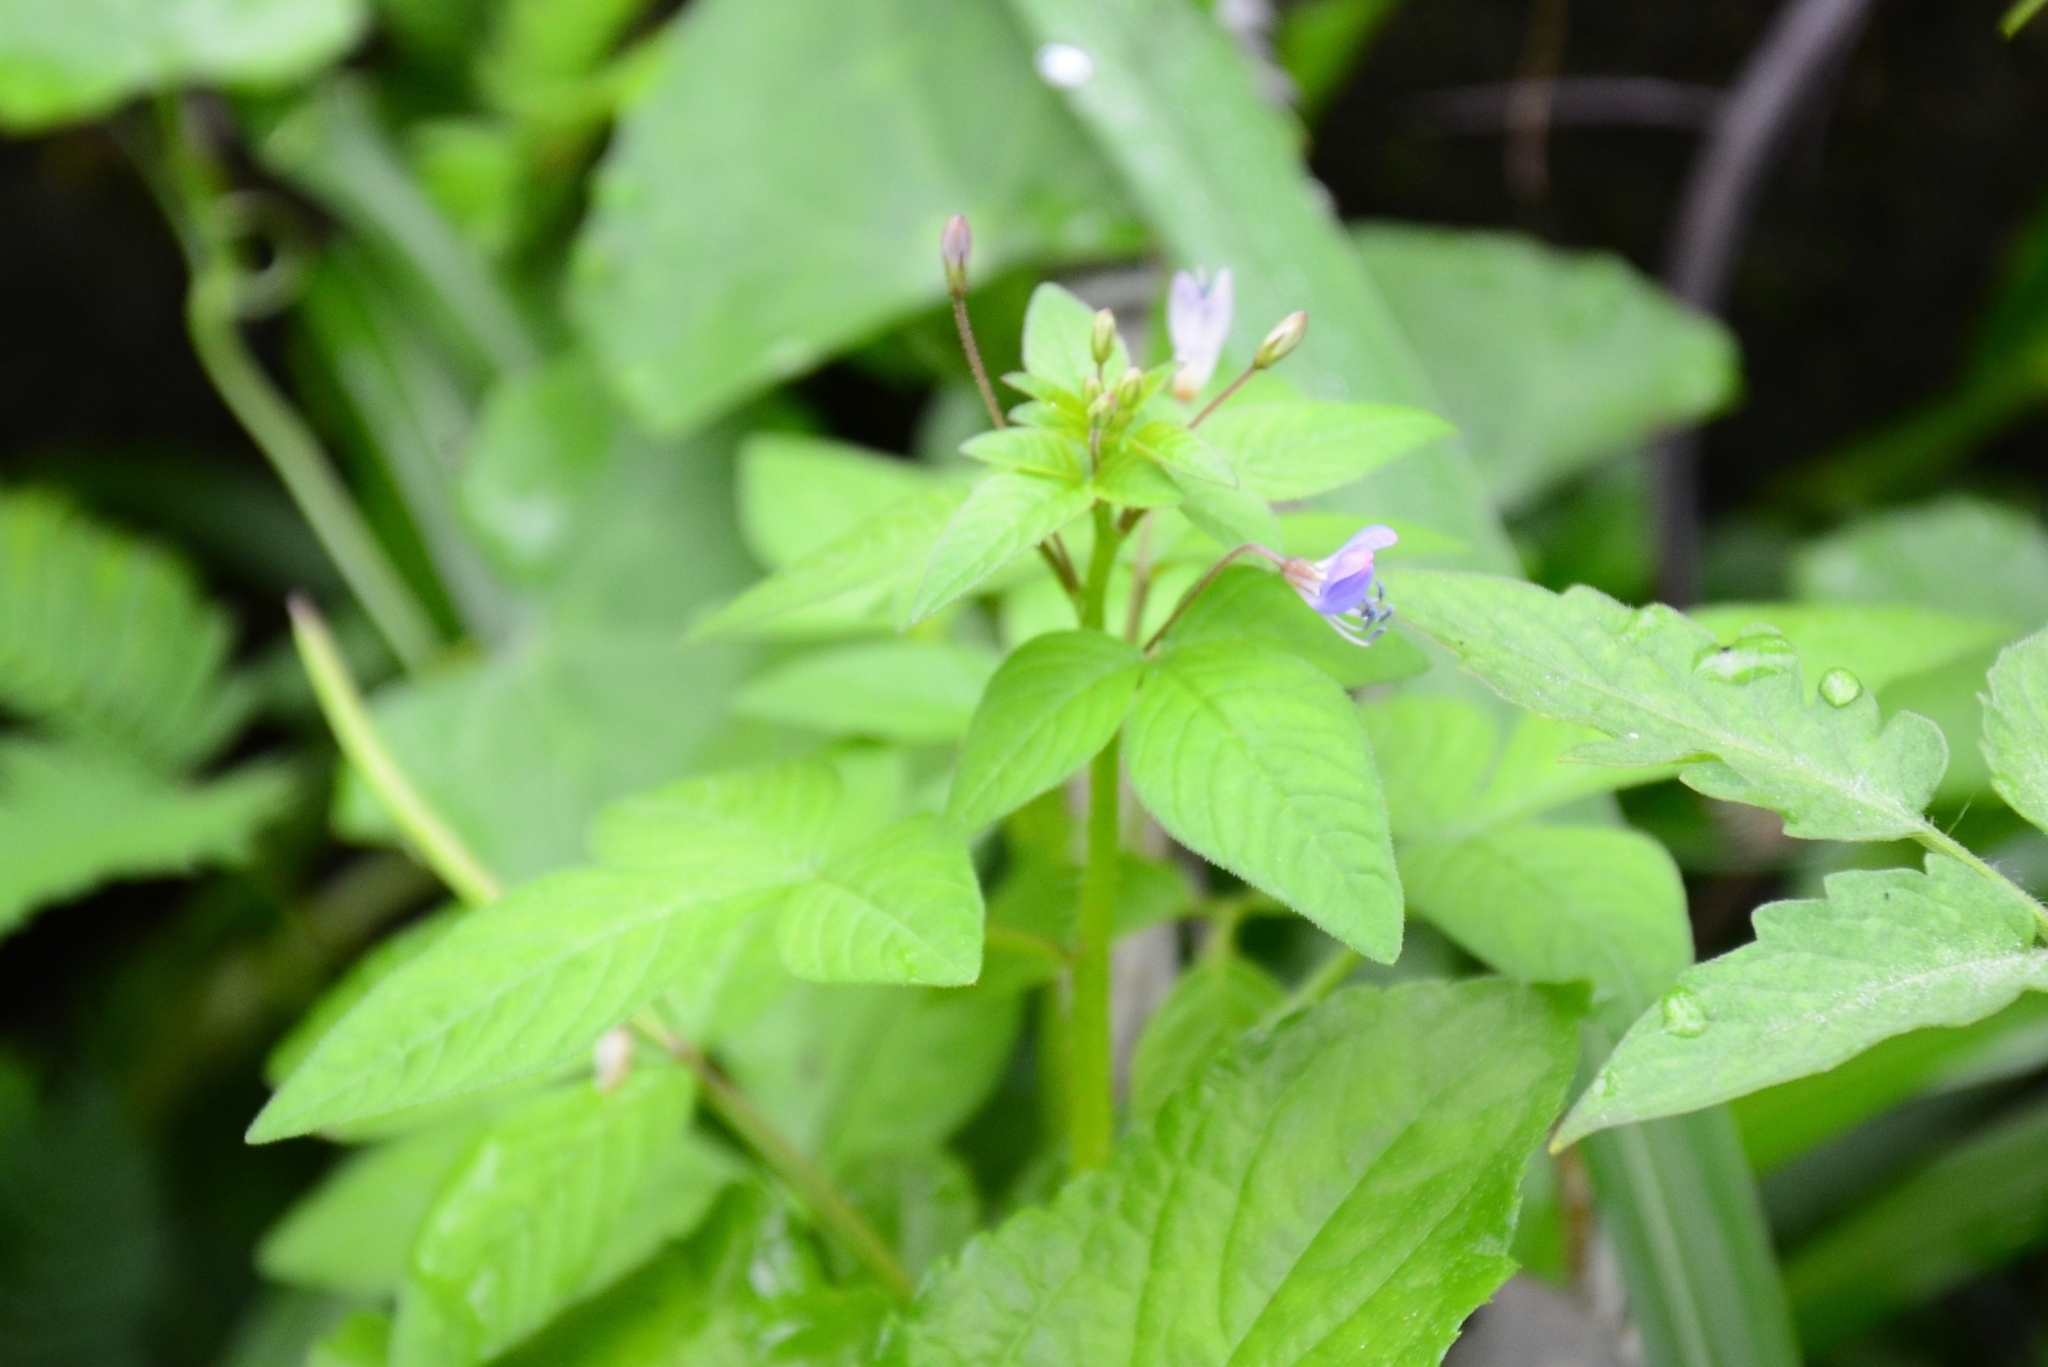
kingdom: Plantae
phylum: Tracheophyta
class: Magnoliopsida
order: Brassicales
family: Cleomaceae
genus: Sieruela
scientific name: Sieruela rutidosperma
